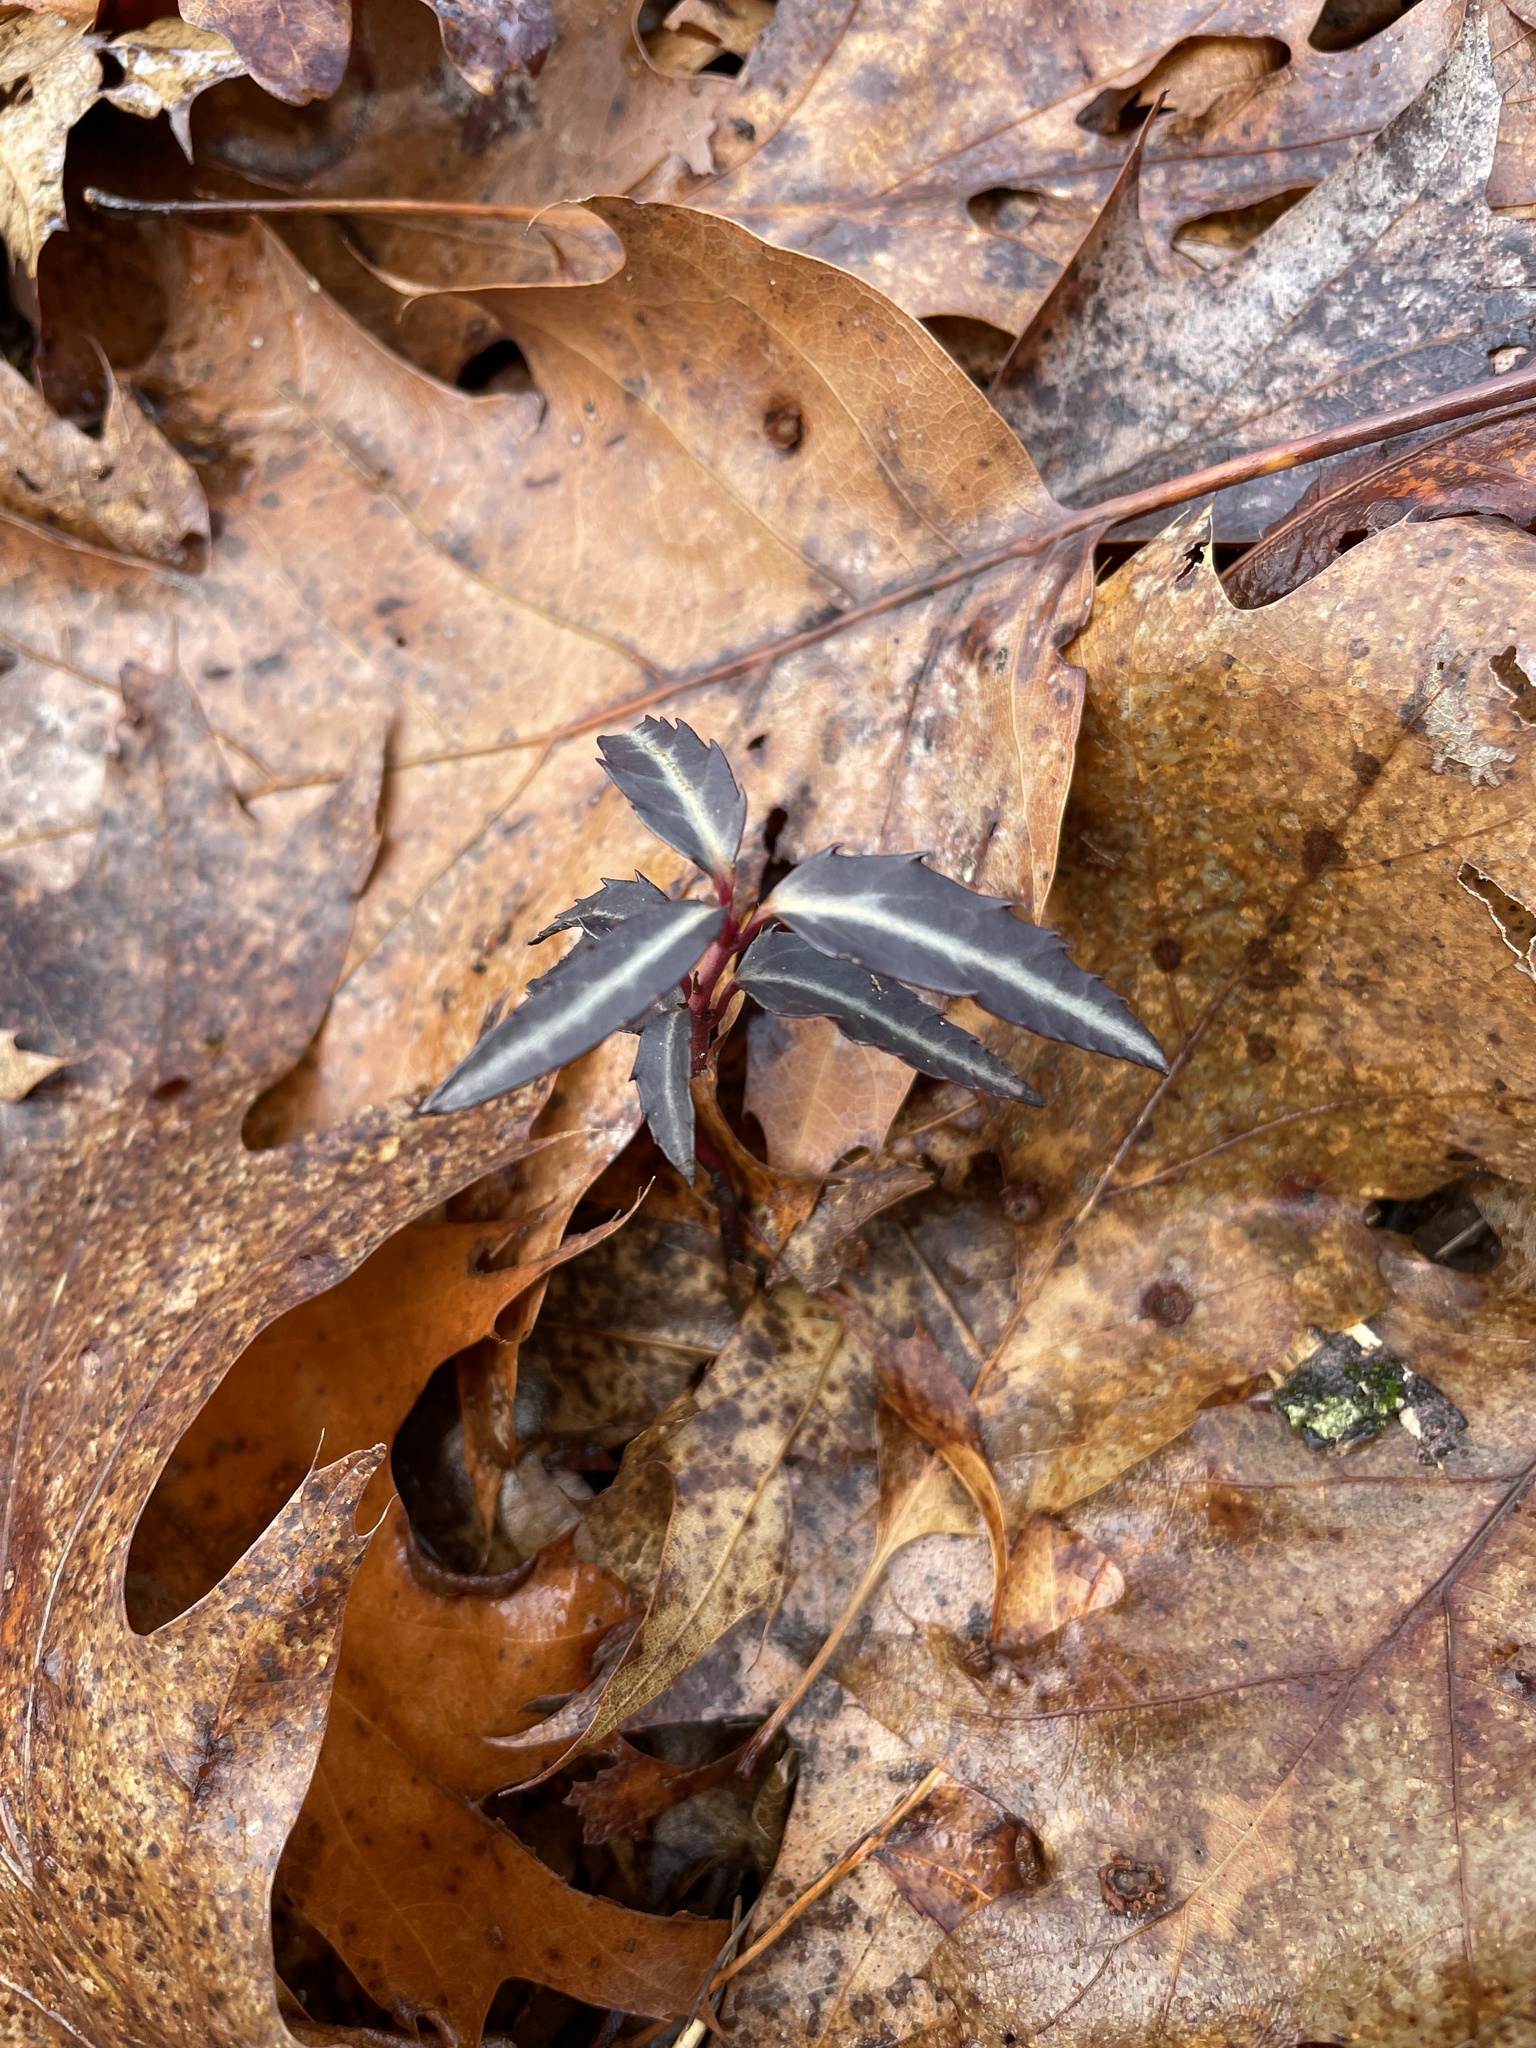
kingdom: Plantae
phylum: Tracheophyta
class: Magnoliopsida
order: Ericales
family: Ericaceae
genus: Chimaphila
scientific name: Chimaphila maculata
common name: Spotted pipsissewa
